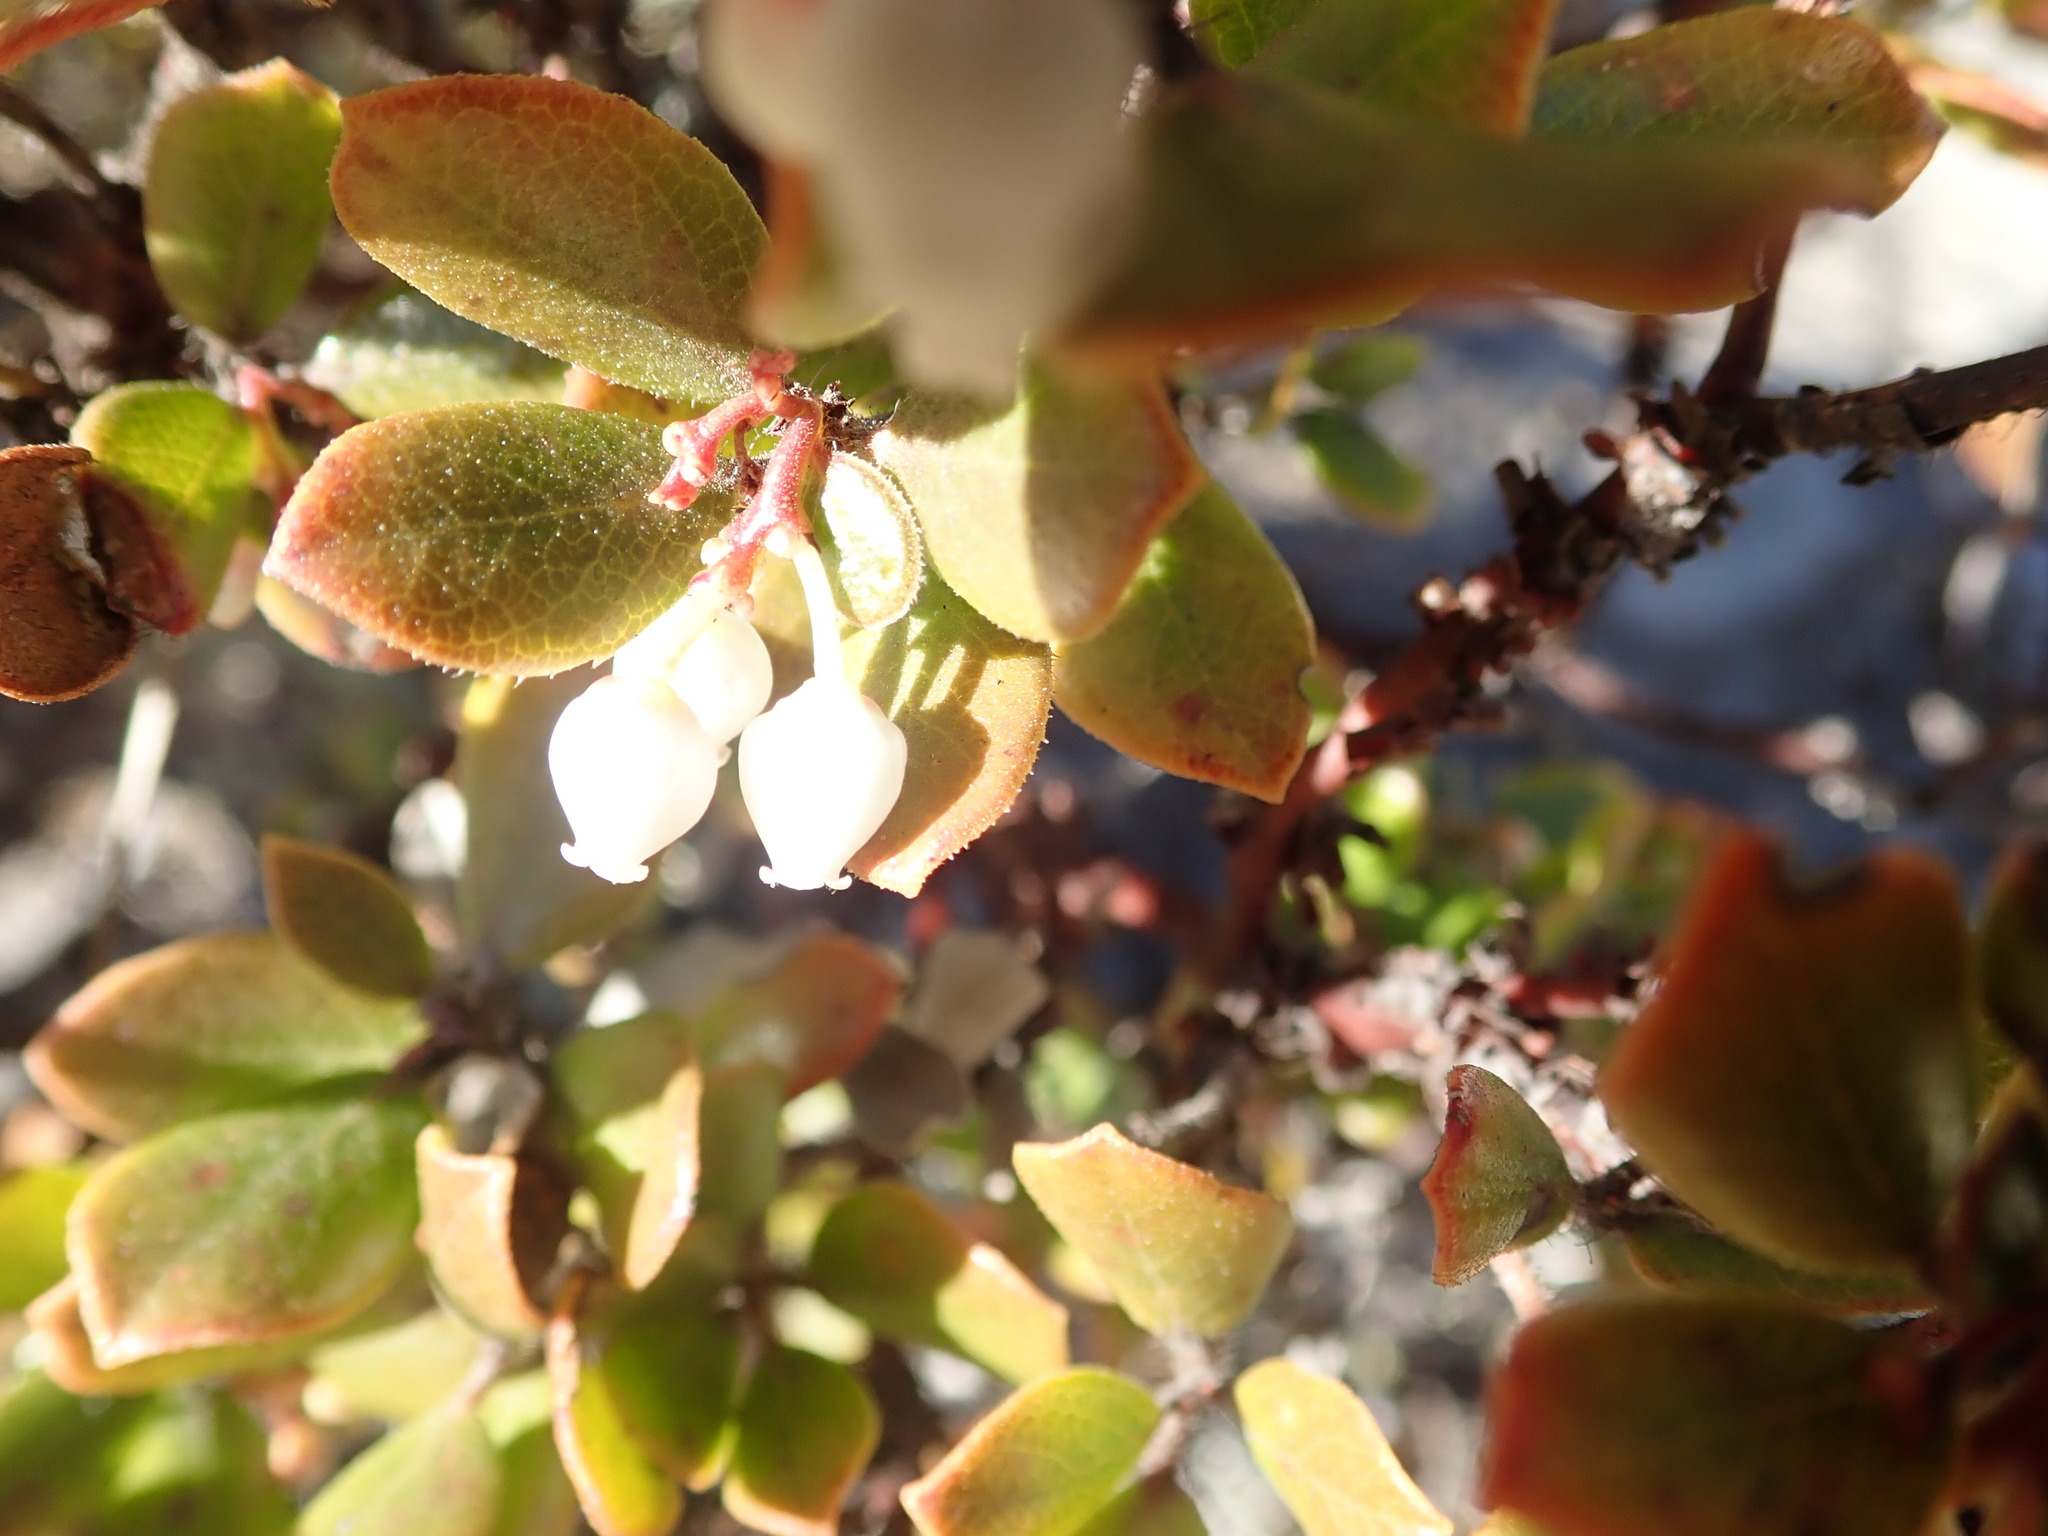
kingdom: Plantae
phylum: Tracheophyta
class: Magnoliopsida
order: Ericales
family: Ericaceae
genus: Arctostaphylos
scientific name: Arctostaphylos nummularia
